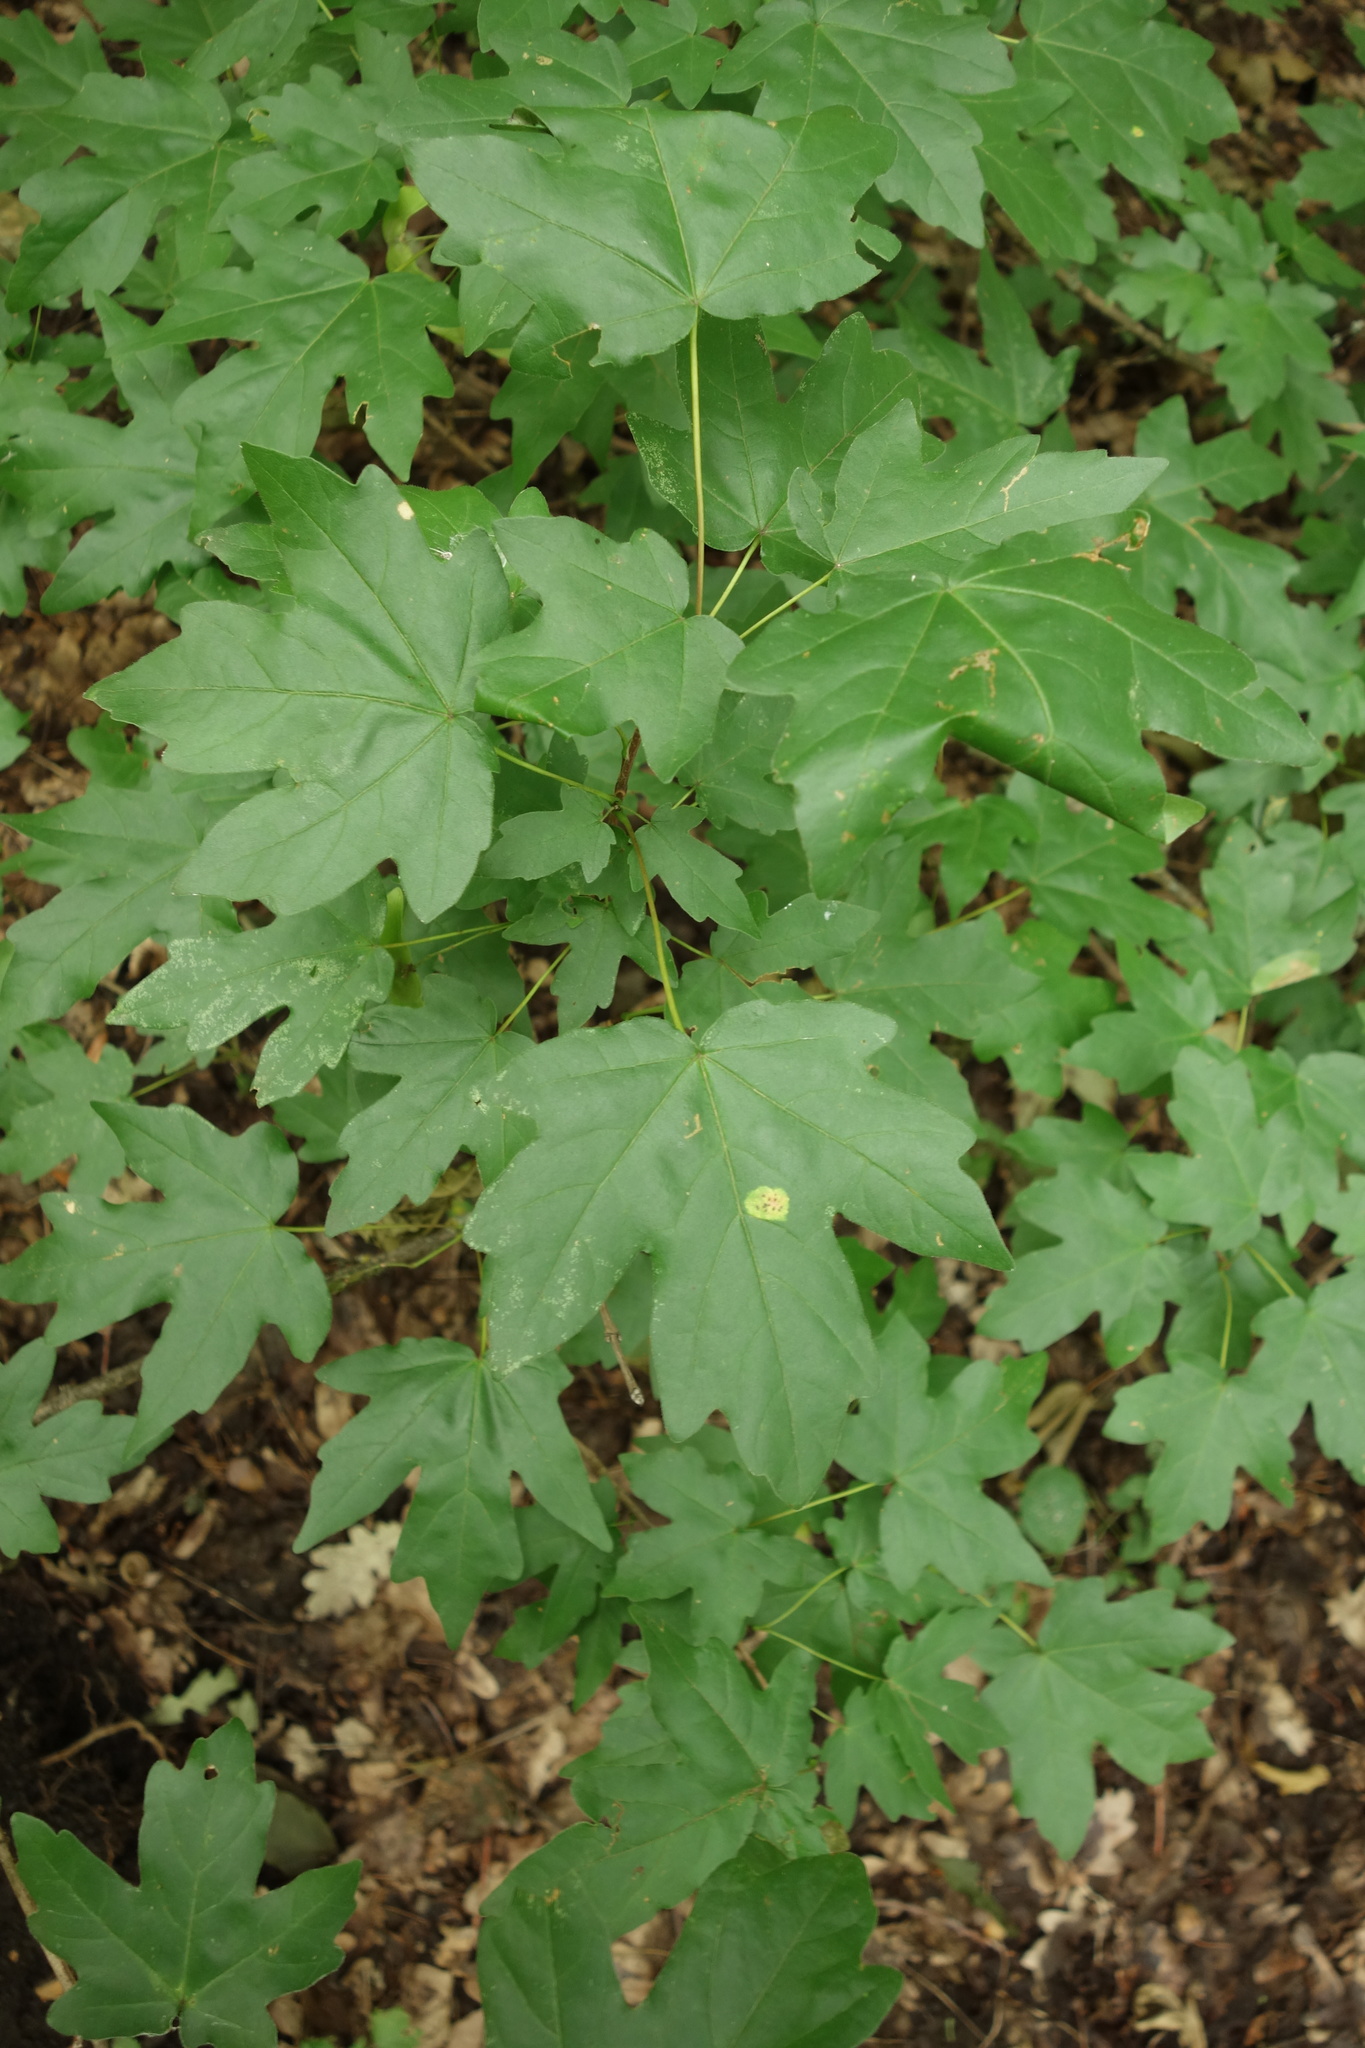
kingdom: Plantae
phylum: Tracheophyta
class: Magnoliopsida
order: Sapindales
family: Sapindaceae
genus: Acer
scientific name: Acer campestre
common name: Field maple
